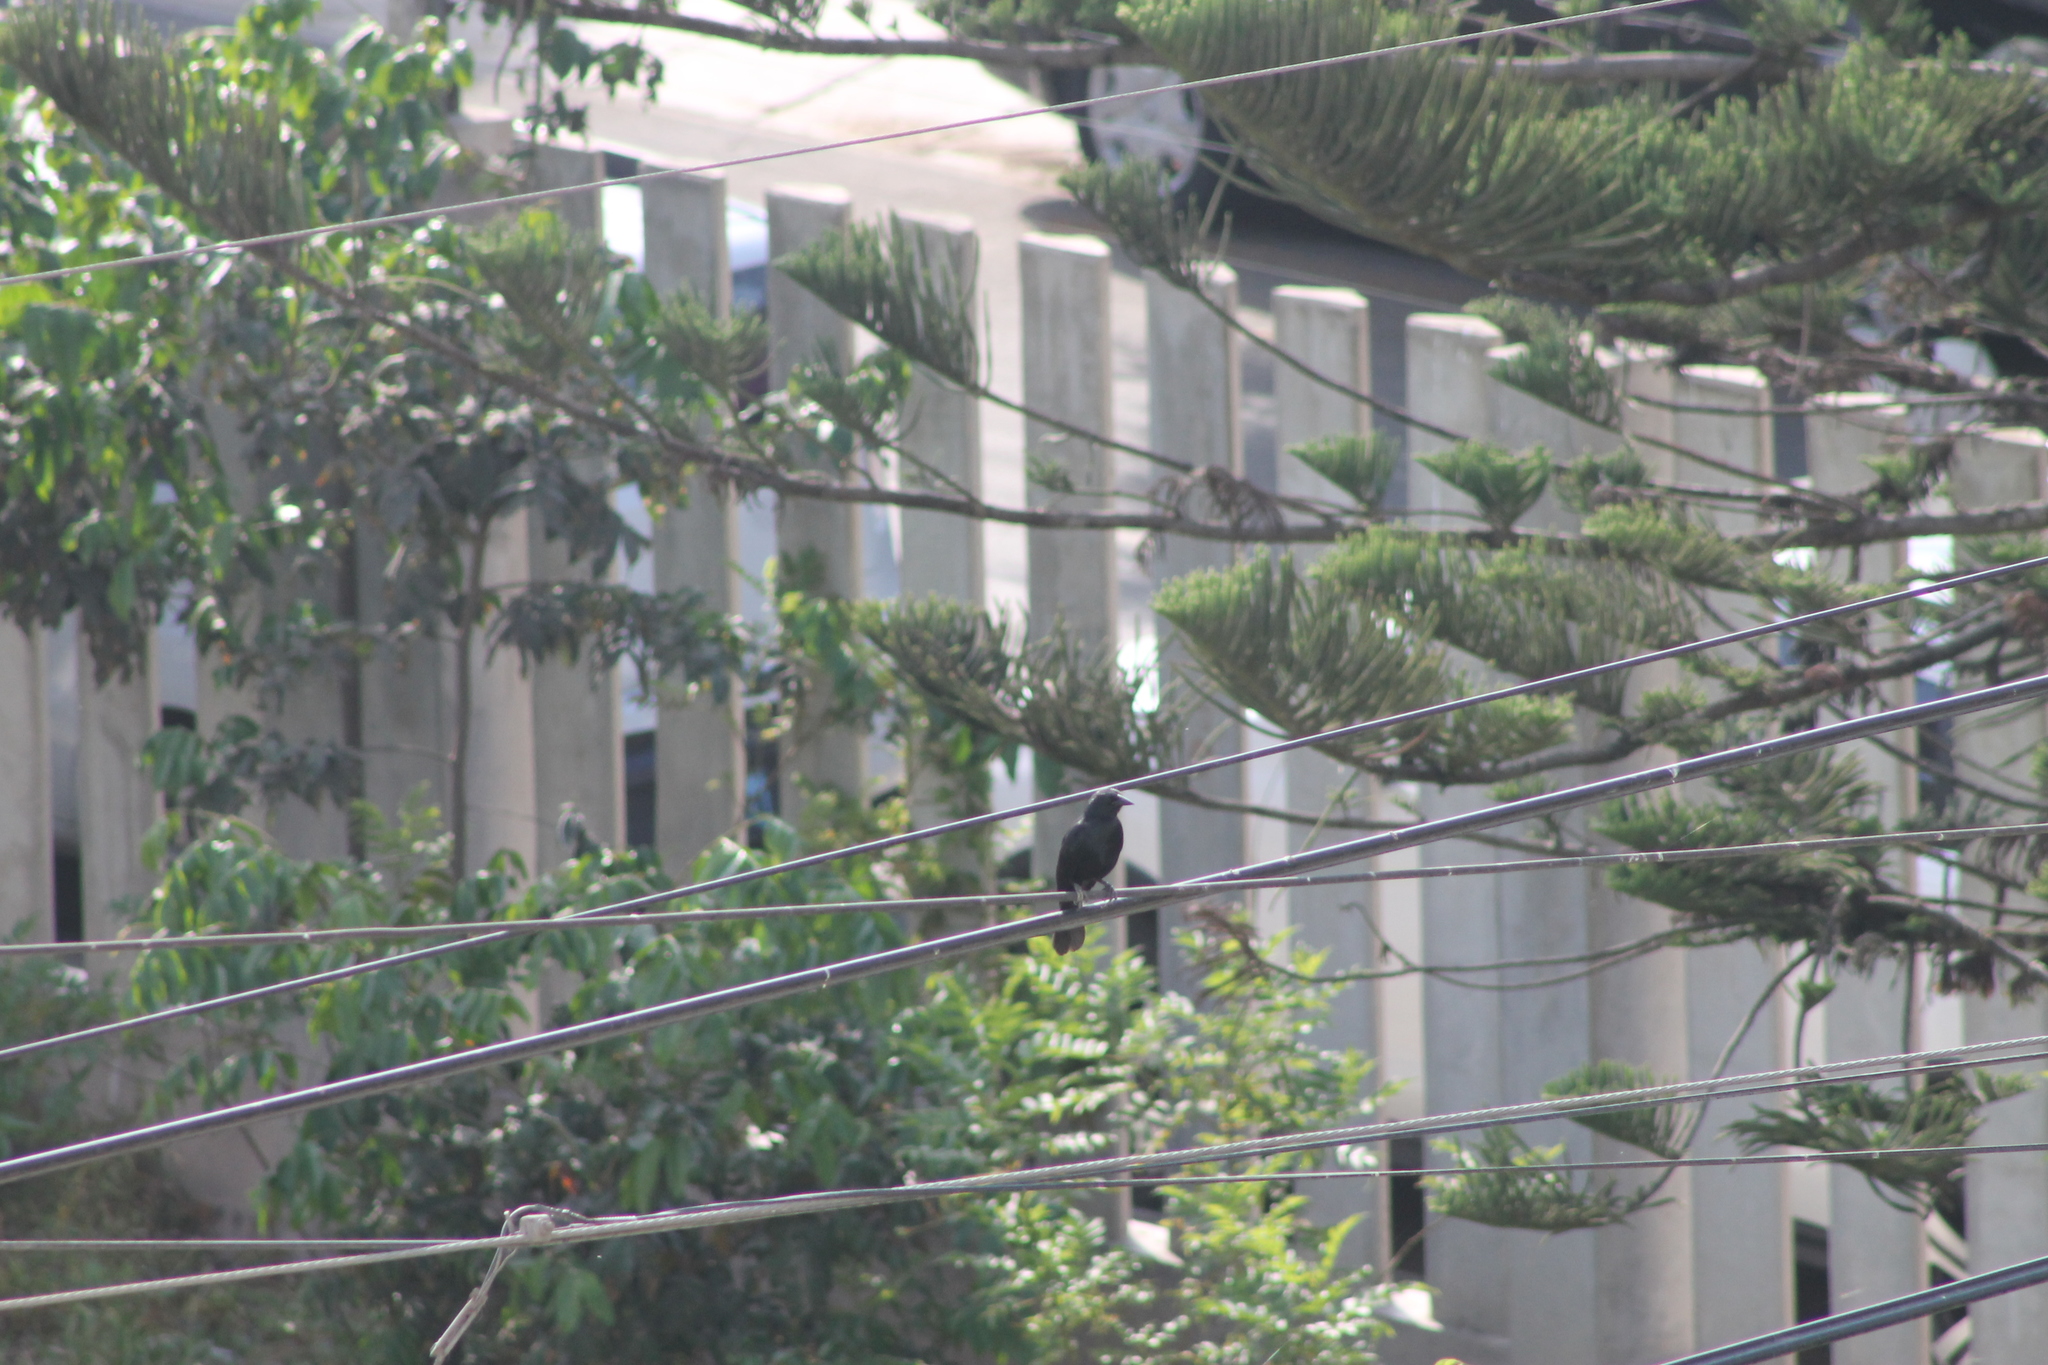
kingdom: Animalia
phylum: Chordata
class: Aves
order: Passeriformes
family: Icteridae
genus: Dives
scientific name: Dives warczewiczi
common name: Scrub blackbird
